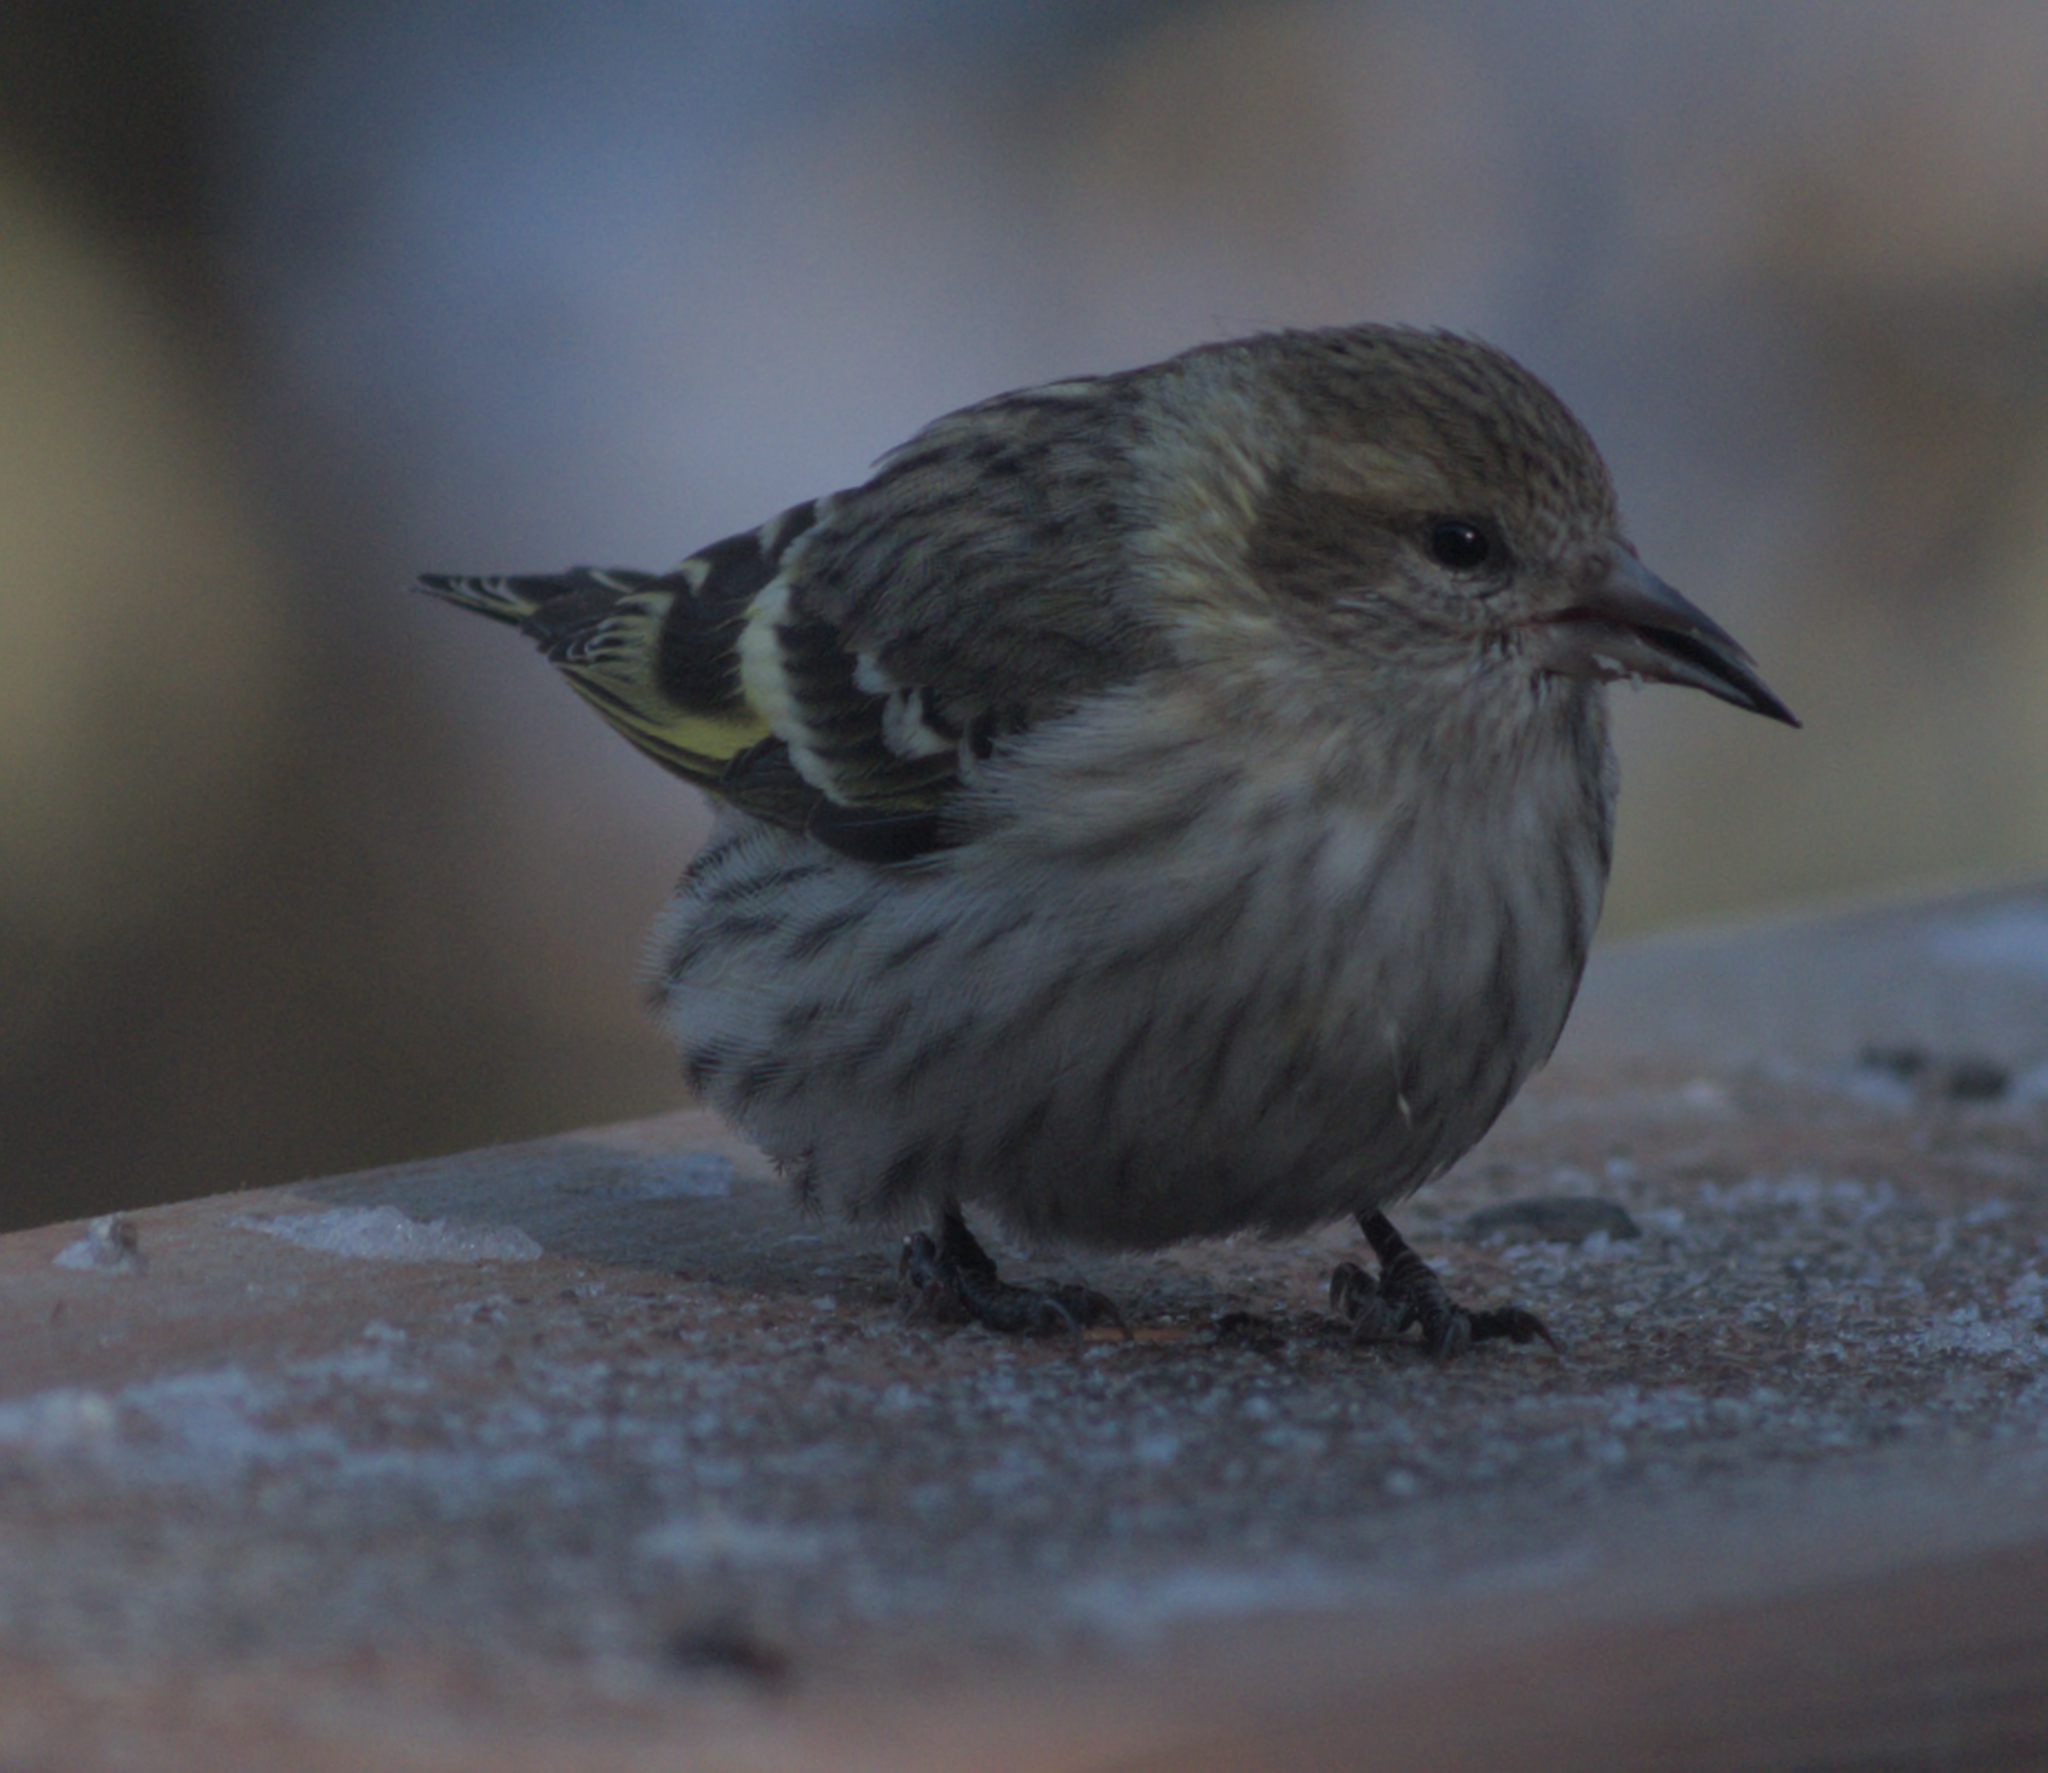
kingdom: Animalia
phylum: Chordata
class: Aves
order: Passeriformes
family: Fringillidae
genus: Spinus
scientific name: Spinus pinus
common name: Pine siskin
